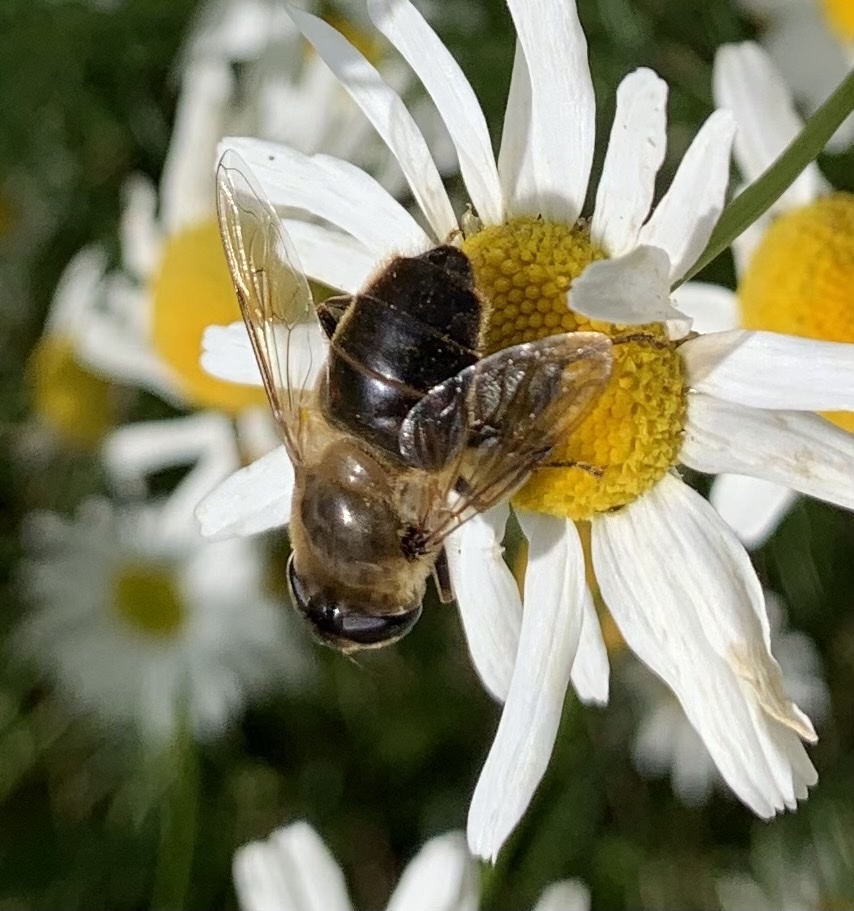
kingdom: Animalia
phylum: Arthropoda
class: Insecta
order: Diptera
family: Syrphidae
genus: Eristalis
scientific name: Eristalis tenax
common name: Drone fly
